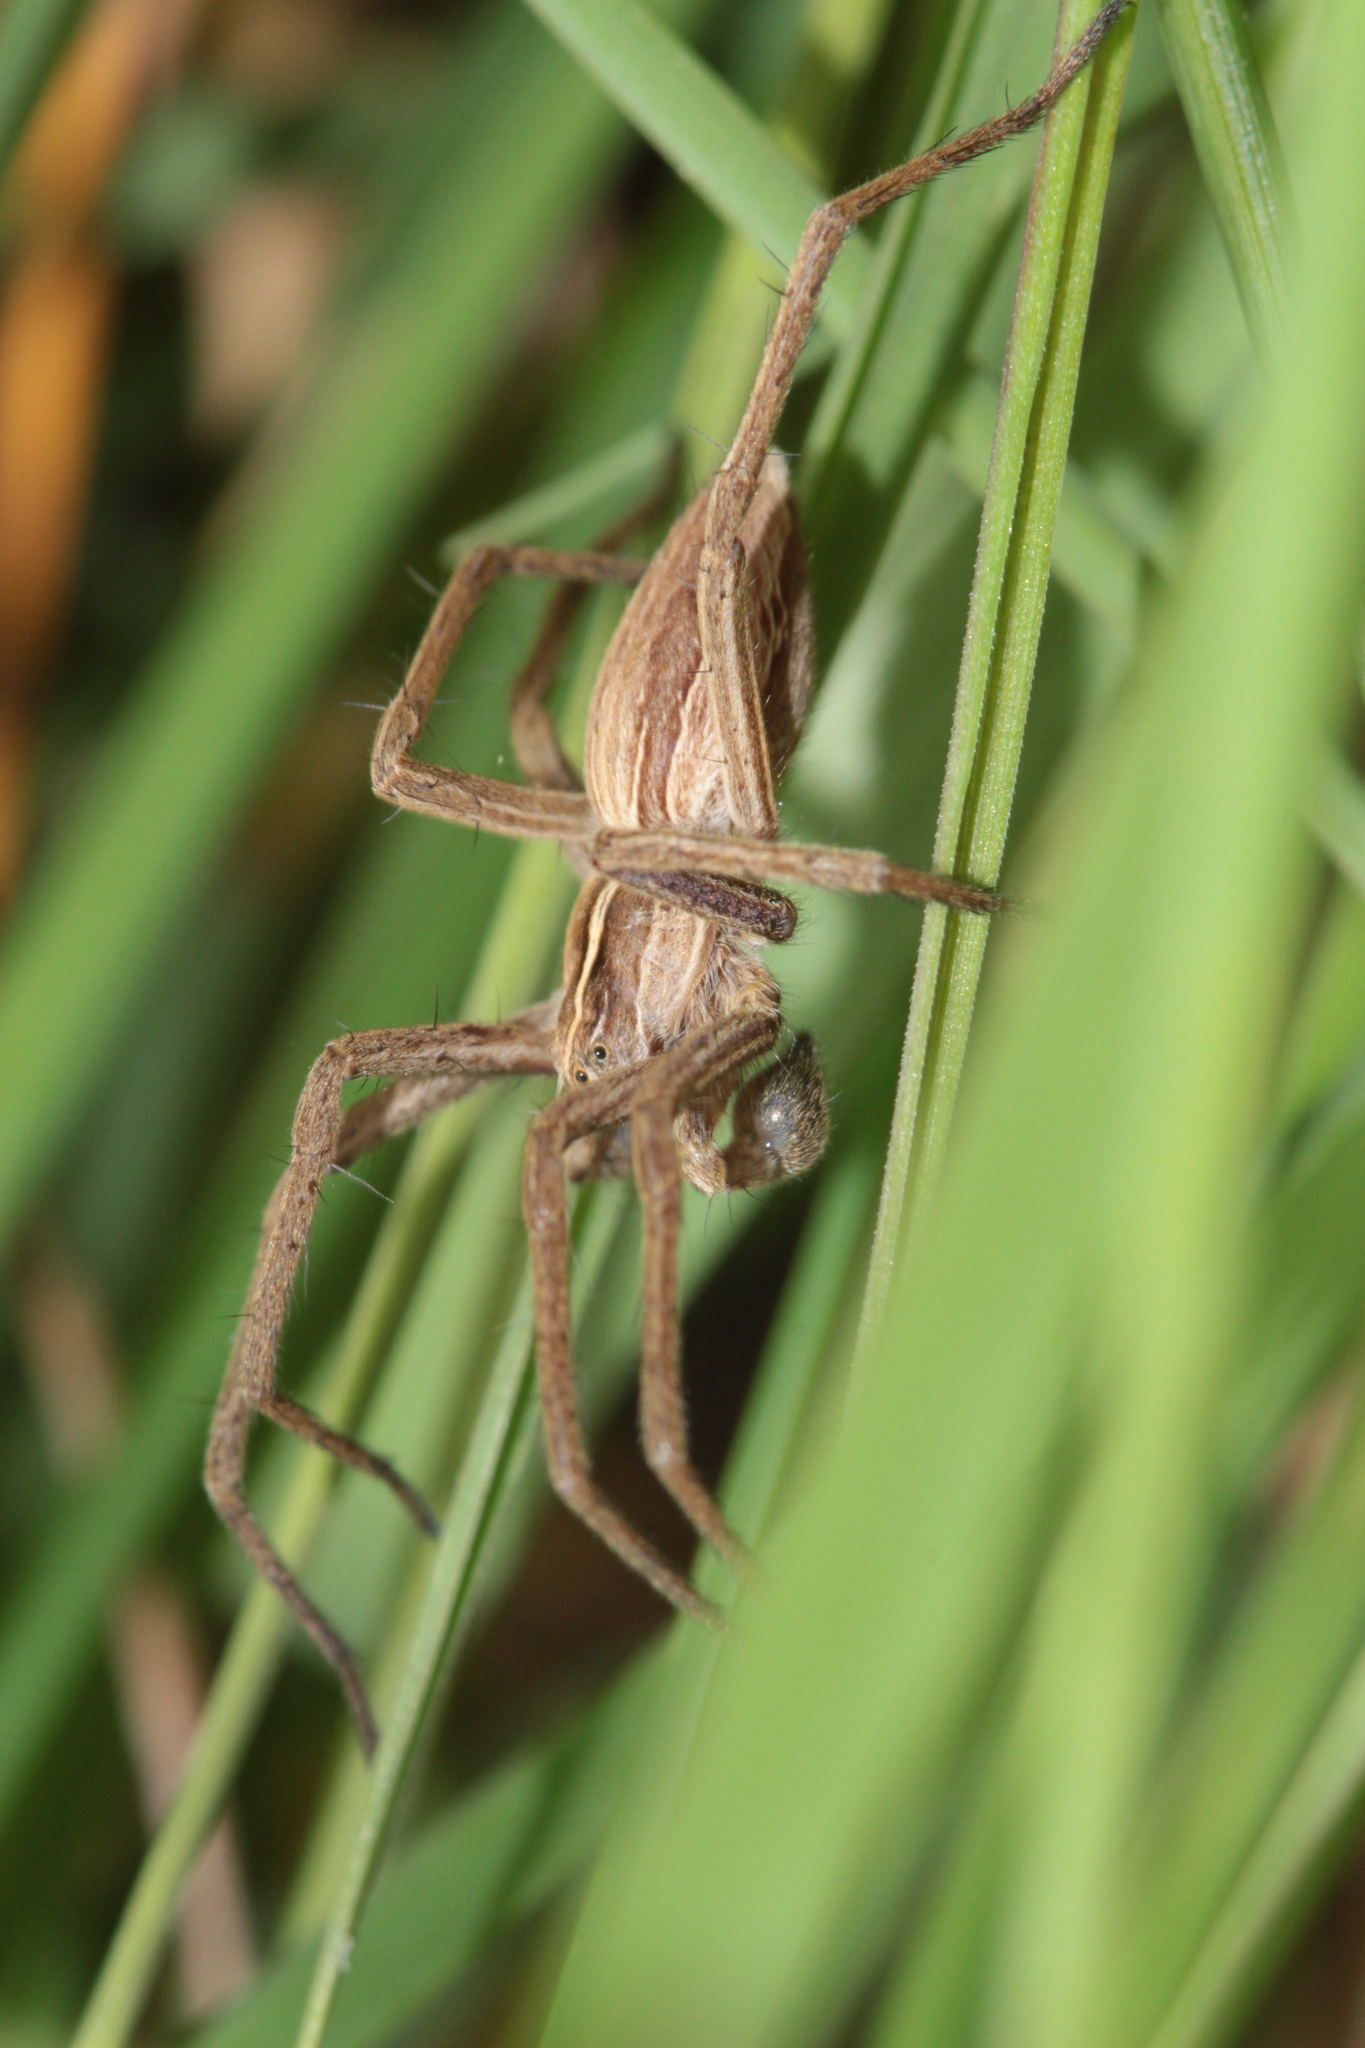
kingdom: Animalia
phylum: Arthropoda
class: Arachnida
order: Araneae
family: Pisauridae
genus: Pisaura
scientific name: Pisaura mirabilis
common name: Tent spider
